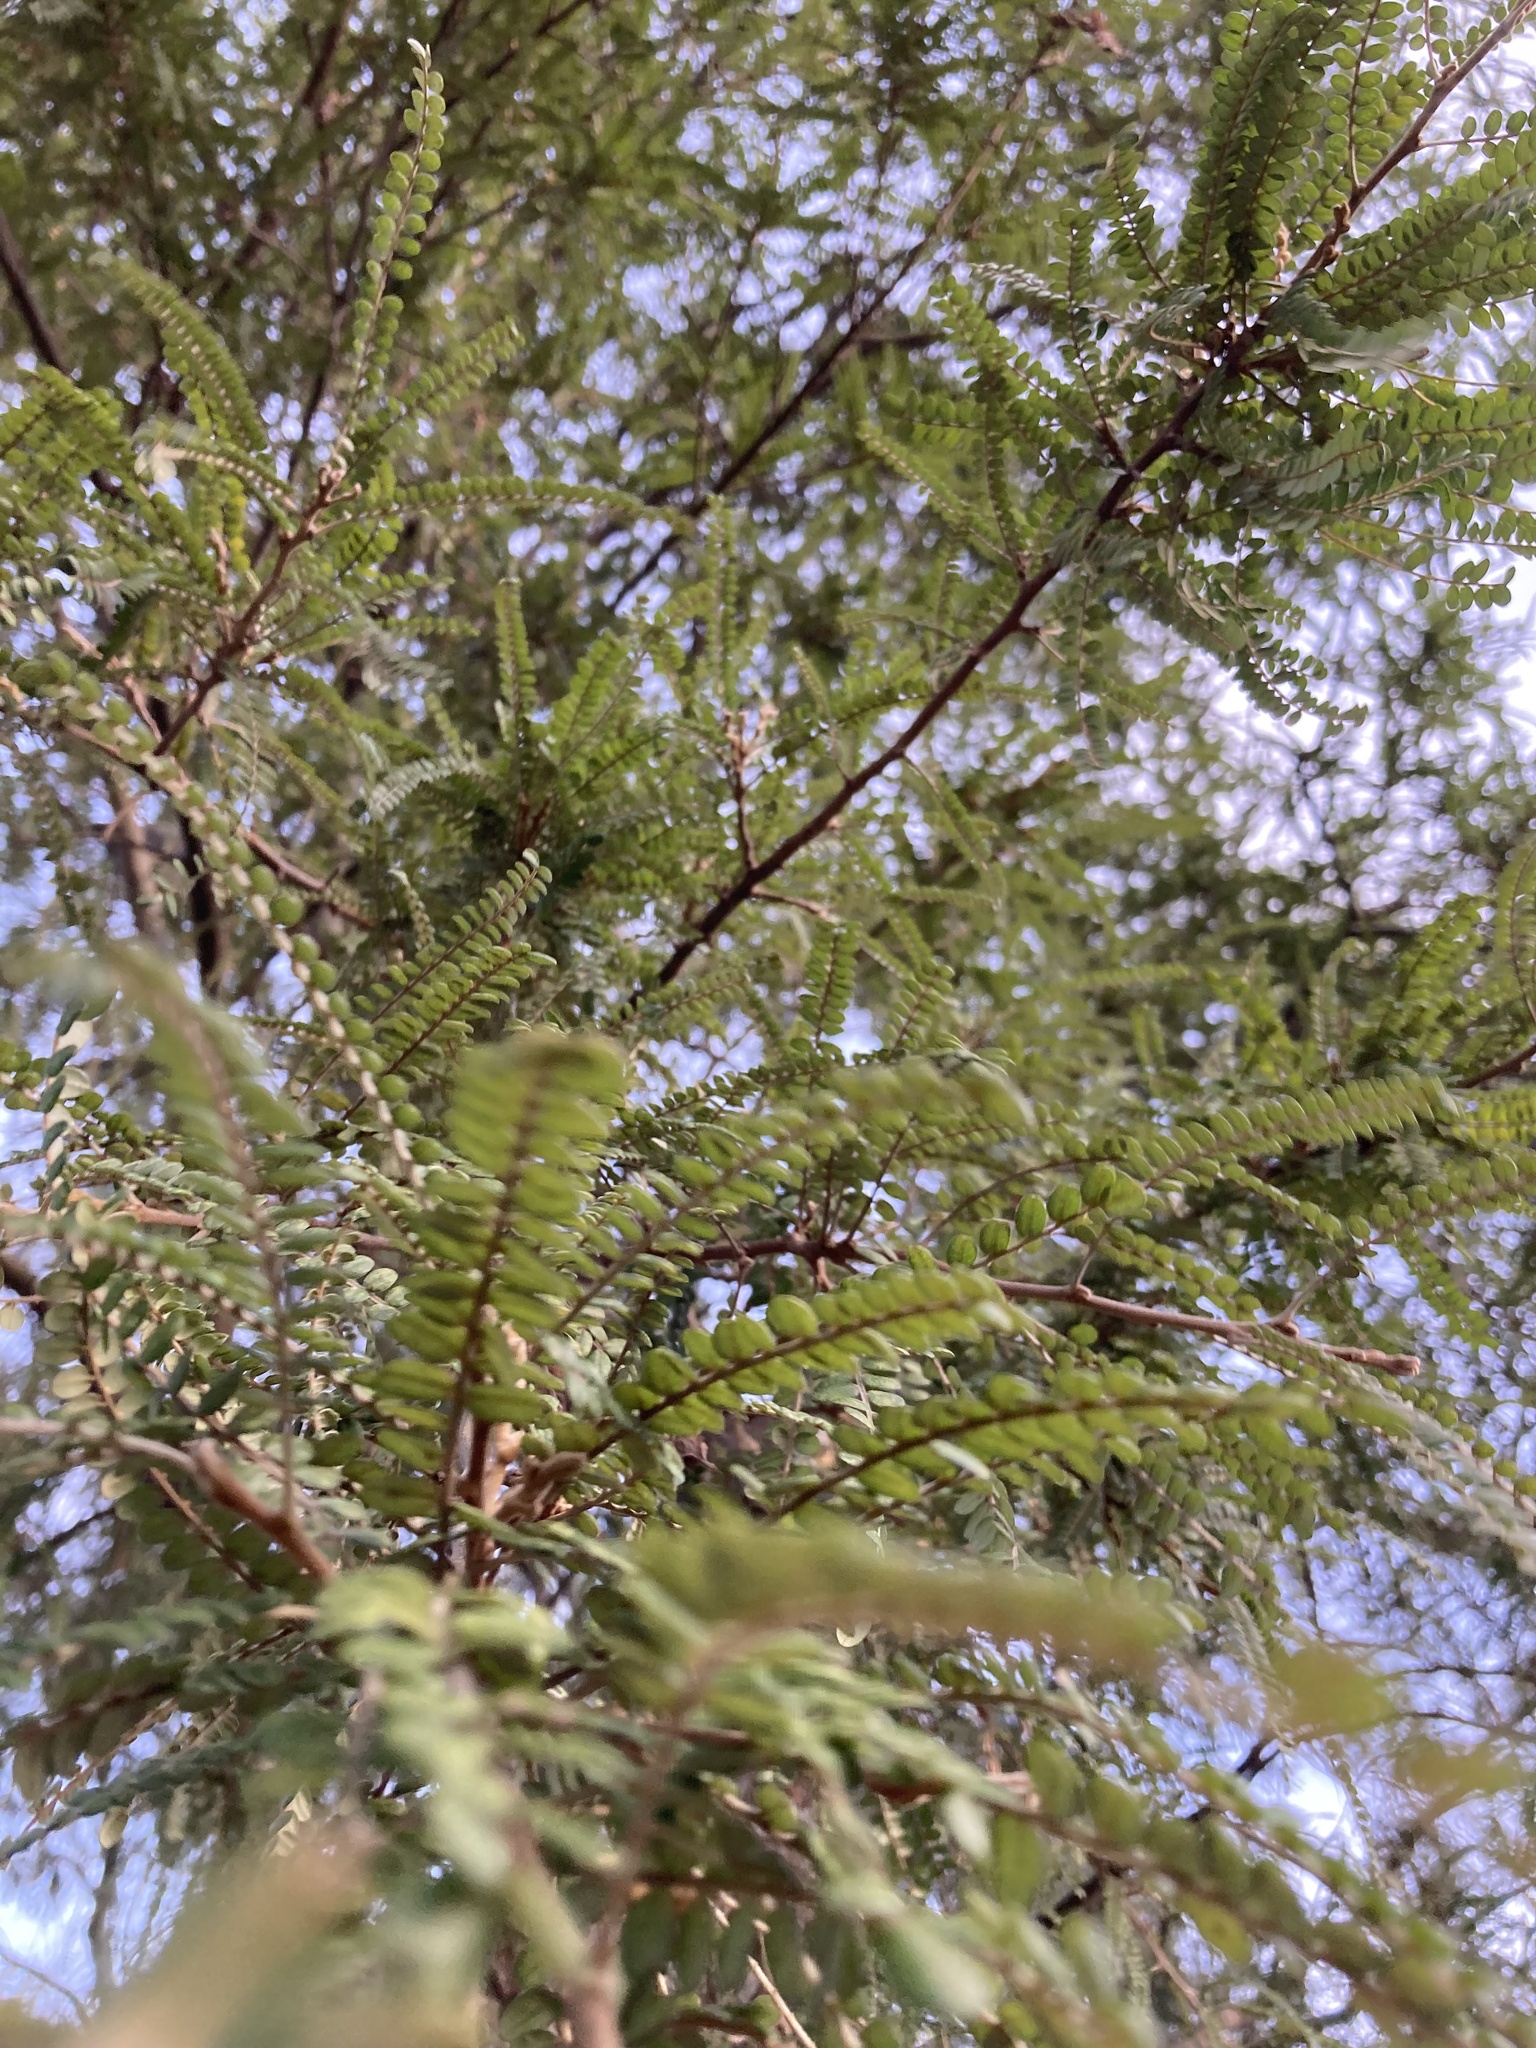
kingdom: Plantae
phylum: Tracheophyta
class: Magnoliopsida
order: Fabales
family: Fabaceae
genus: Sophora
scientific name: Sophora microphylla
